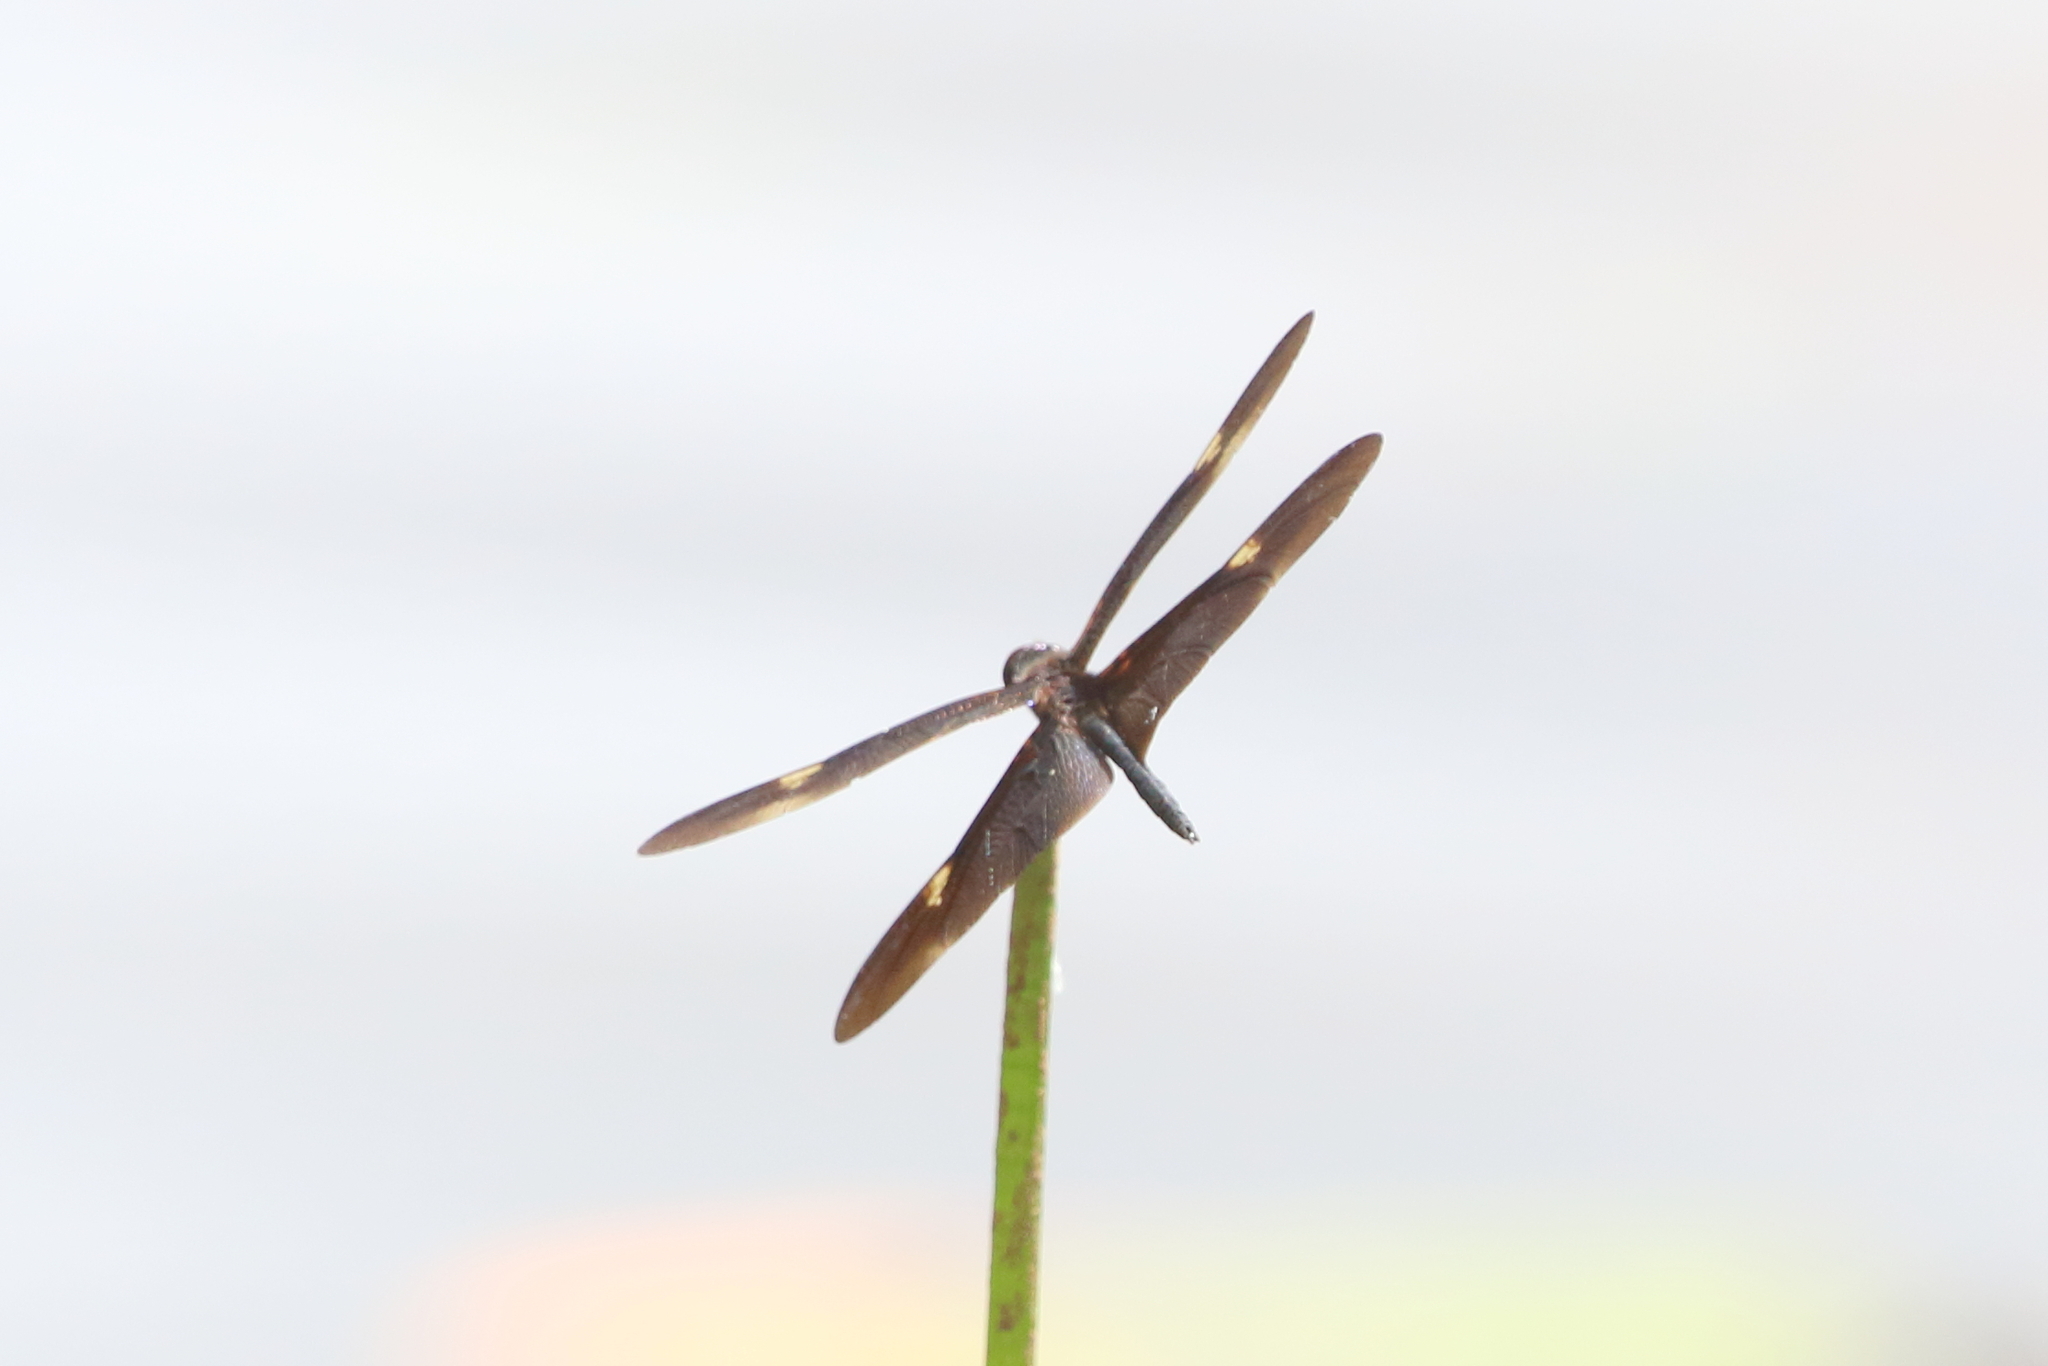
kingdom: Animalia
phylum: Arthropoda
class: Insecta
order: Odonata
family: Libellulidae
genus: Rhyothemis
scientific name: Rhyothemis princeps
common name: Sapphire flutterer
